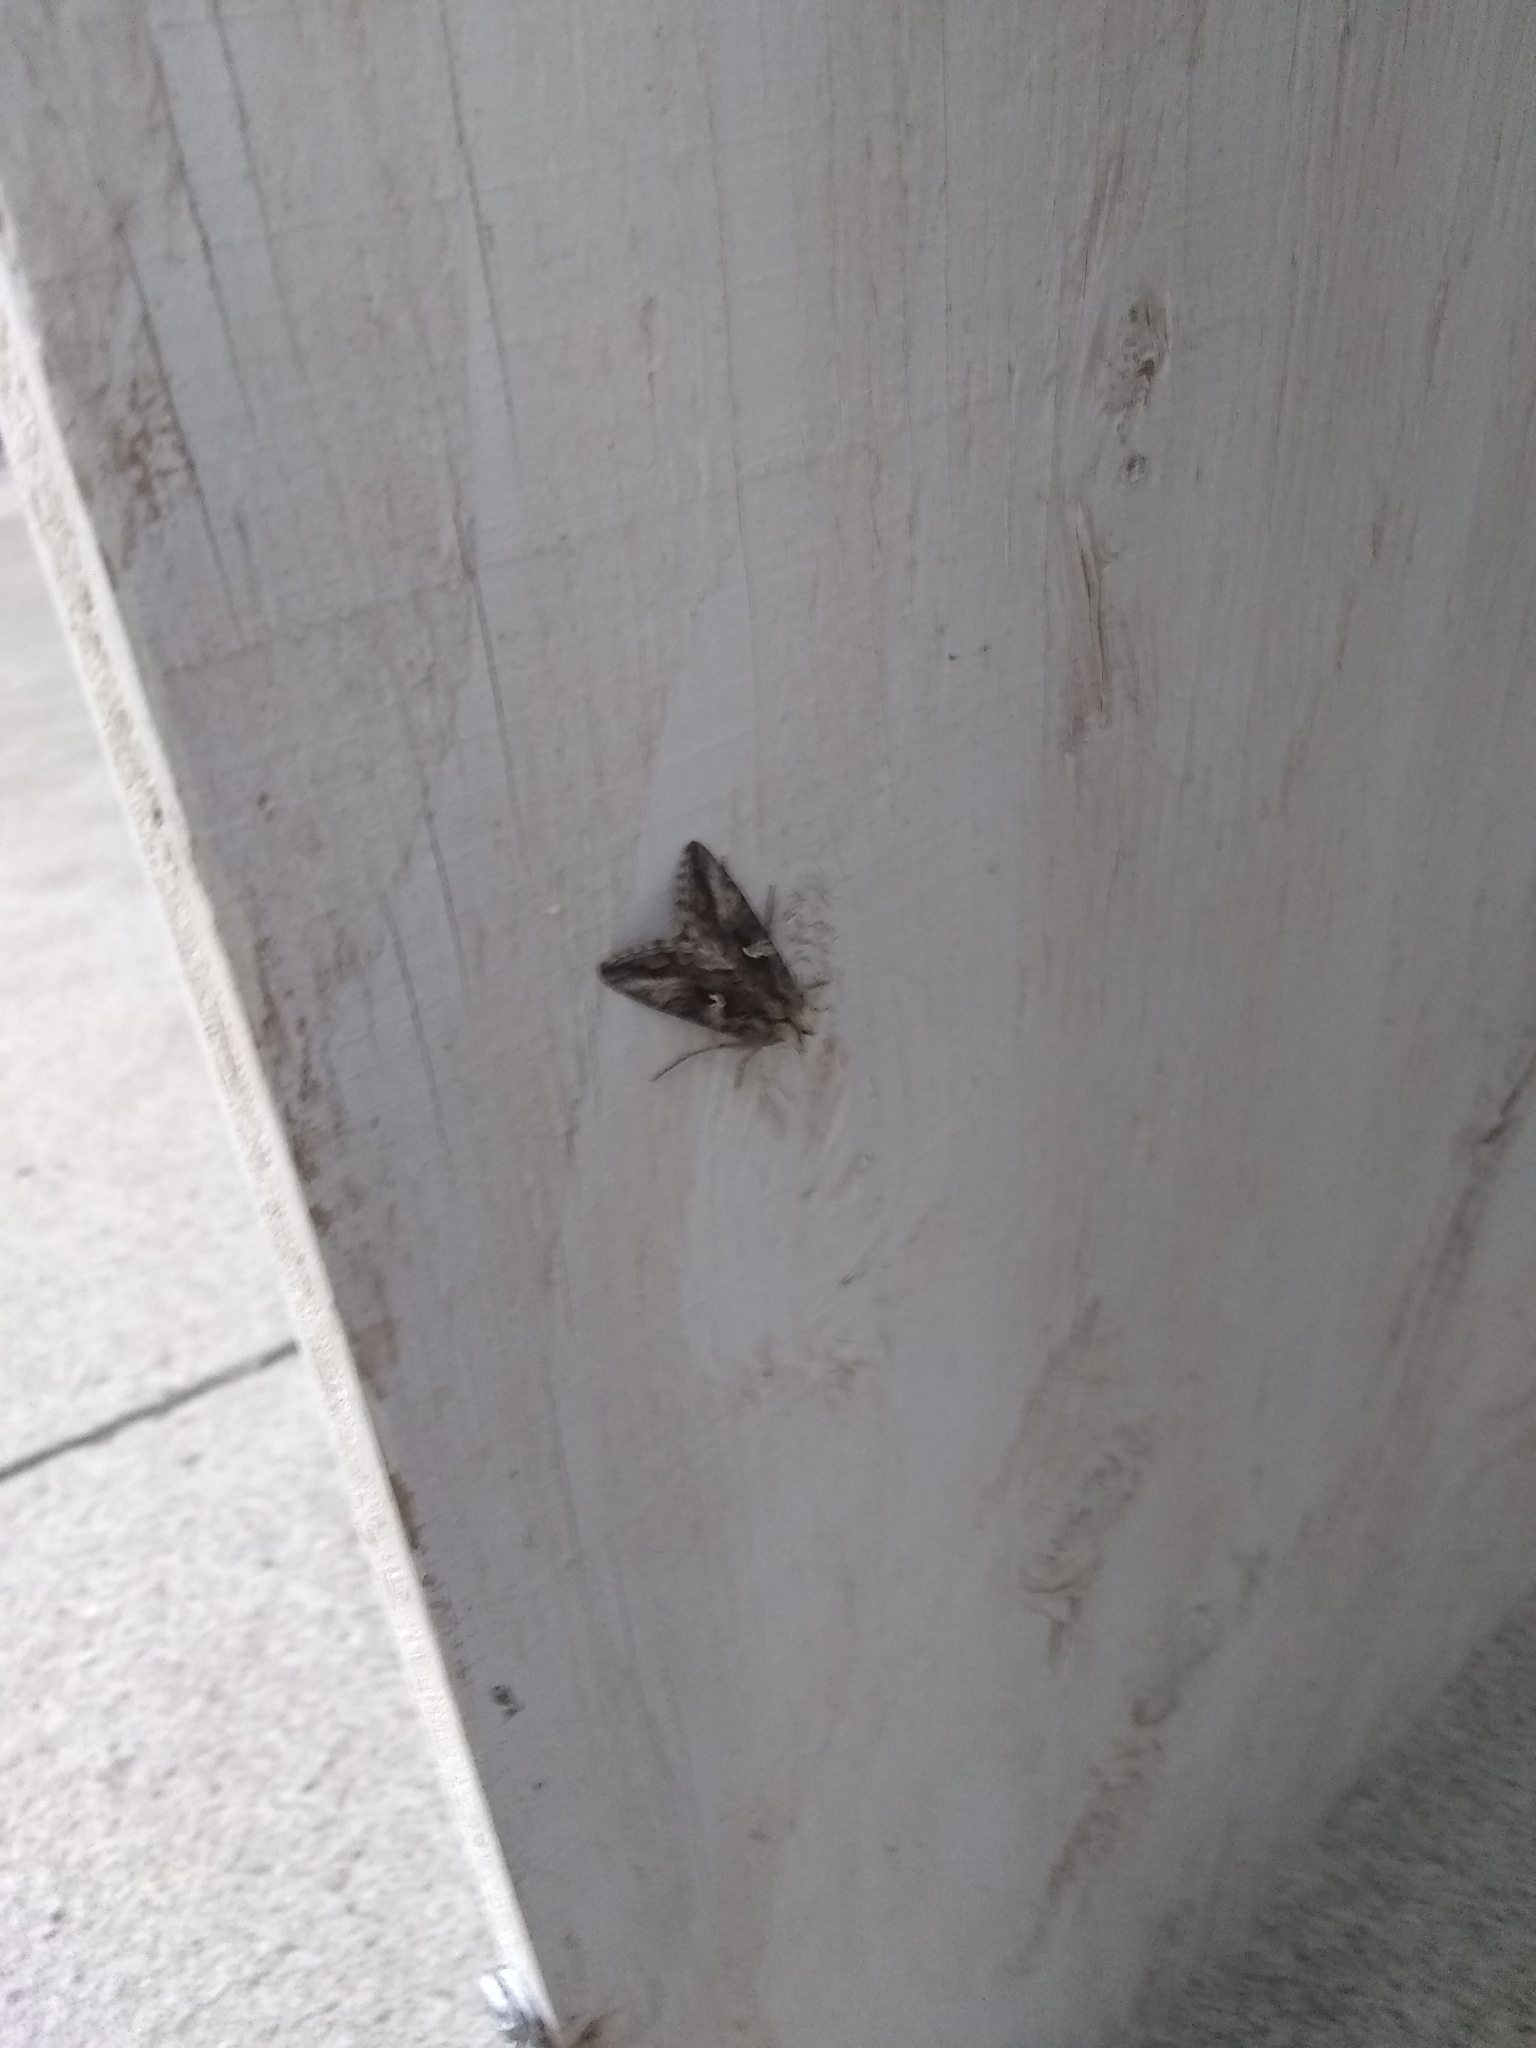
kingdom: Animalia
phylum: Arthropoda
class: Insecta
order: Lepidoptera
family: Noctuidae
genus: Autographa
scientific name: Autographa californica
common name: Alfalfa looper
